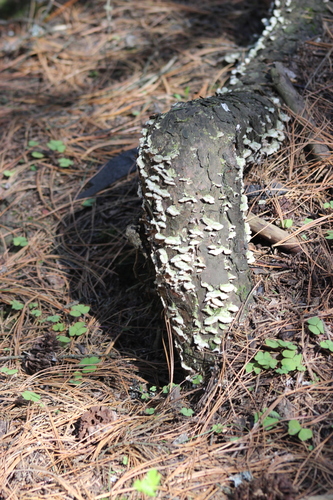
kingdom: Fungi
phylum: Basidiomycota
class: Agaricomycetes
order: Hymenochaetales
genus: Trichaptum
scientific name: Trichaptum abietinum
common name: Purplepore bracket
